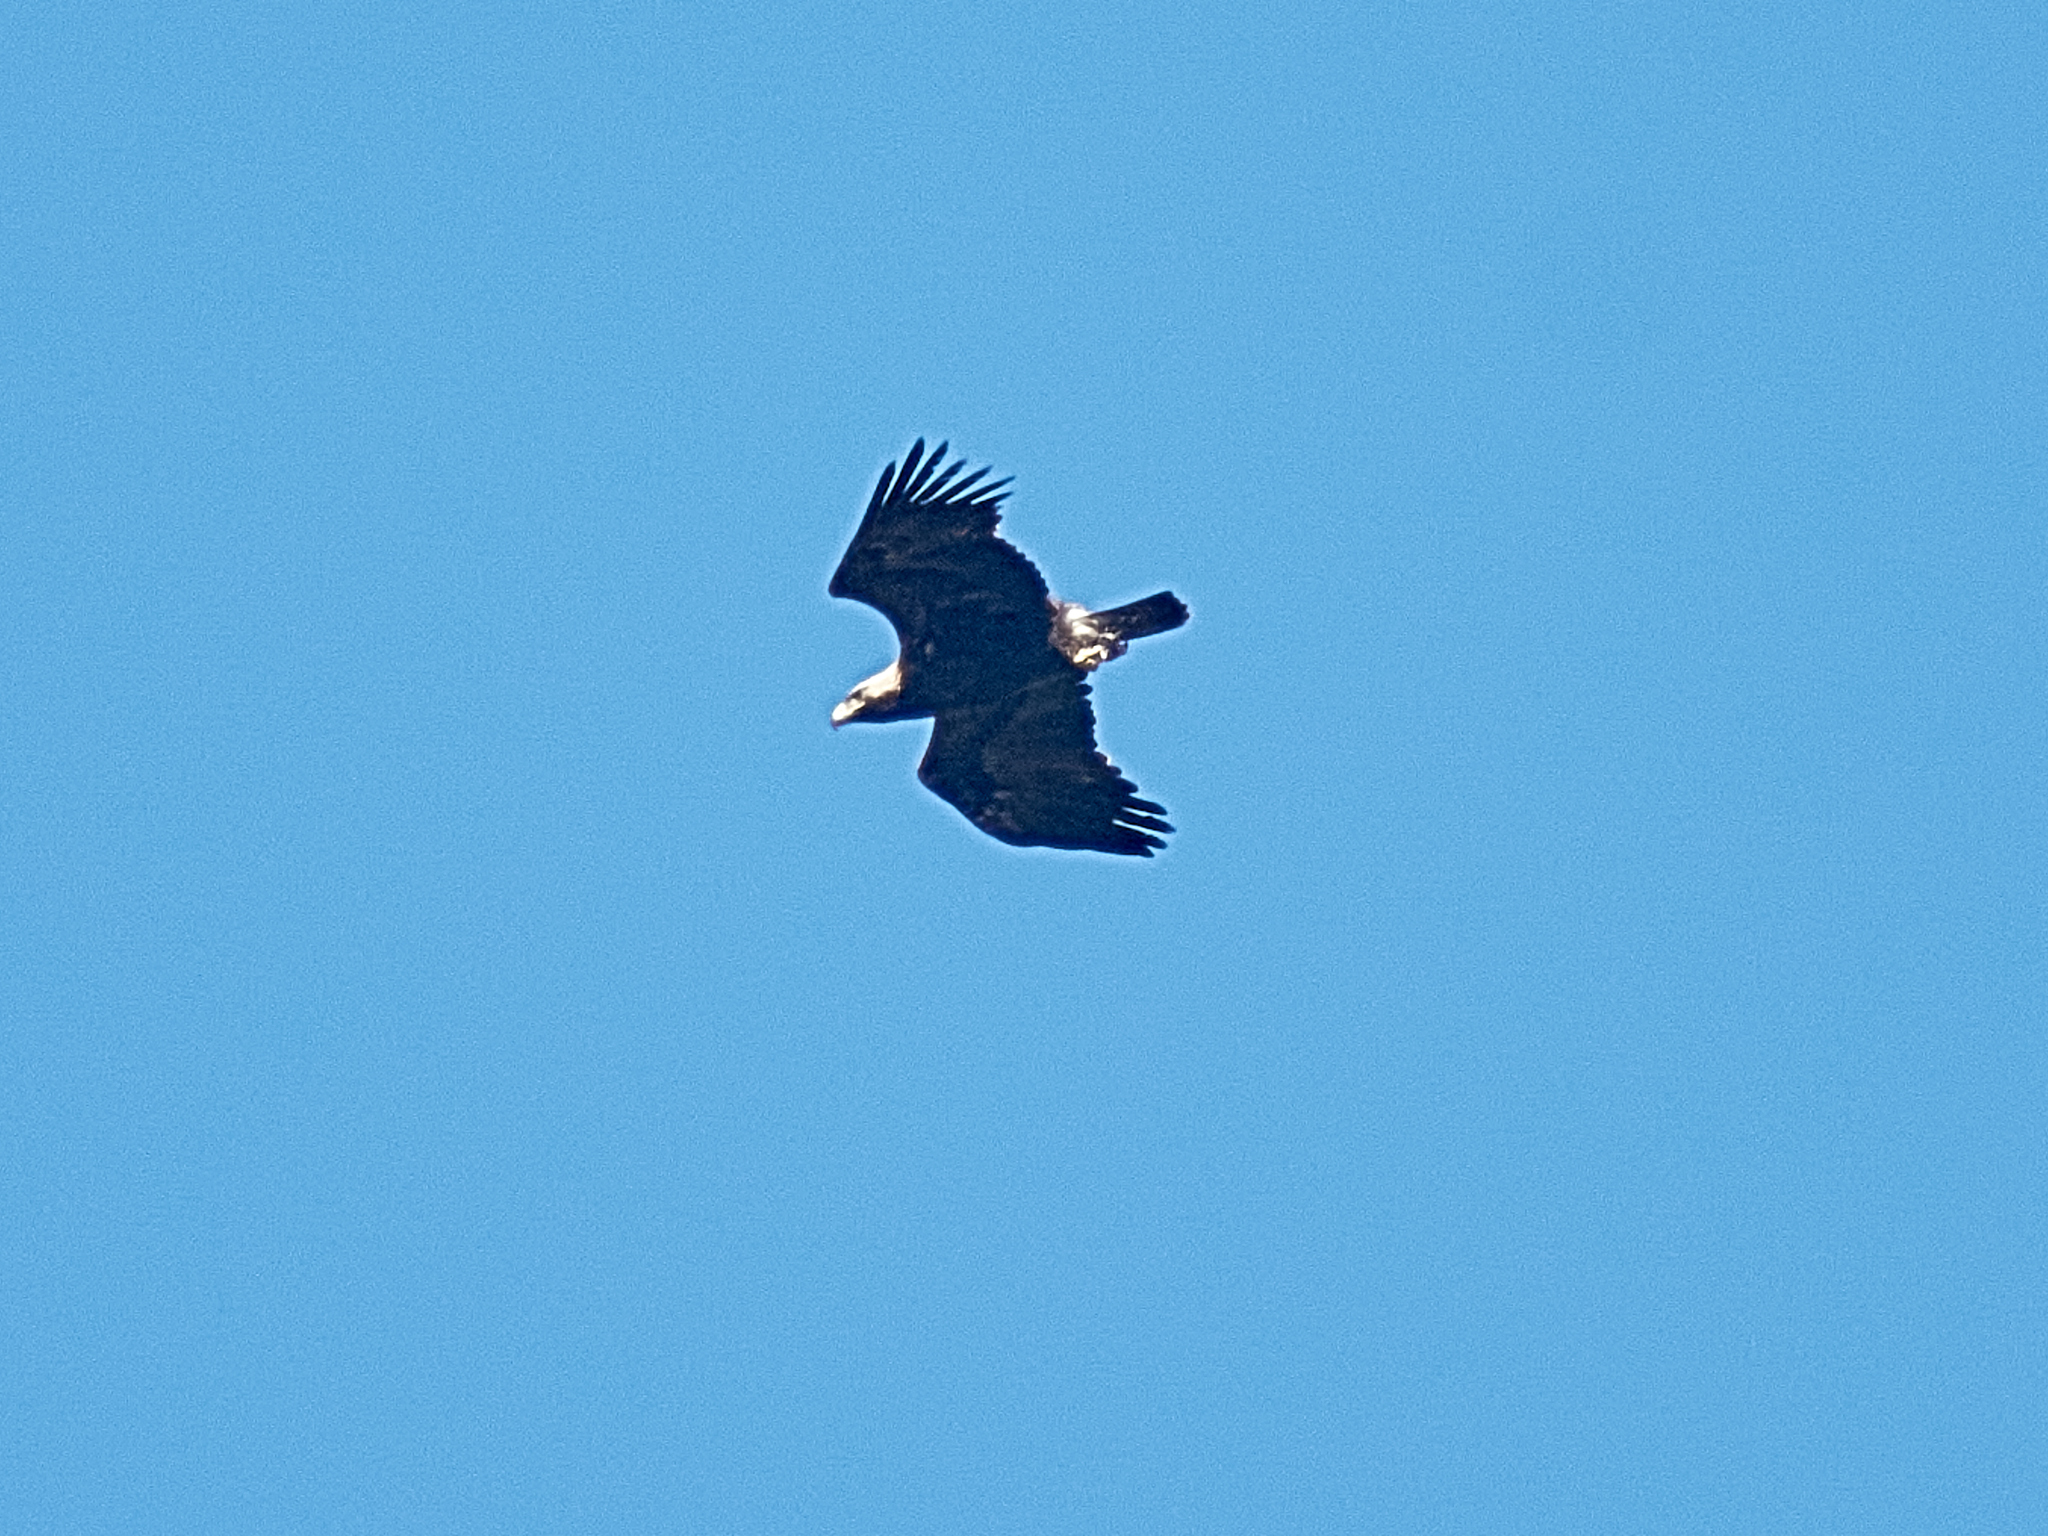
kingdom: Animalia
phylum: Chordata
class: Aves
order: Accipitriformes
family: Accipitridae
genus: Aquila
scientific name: Aquila heliaca
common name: Eastern imperial eagle
